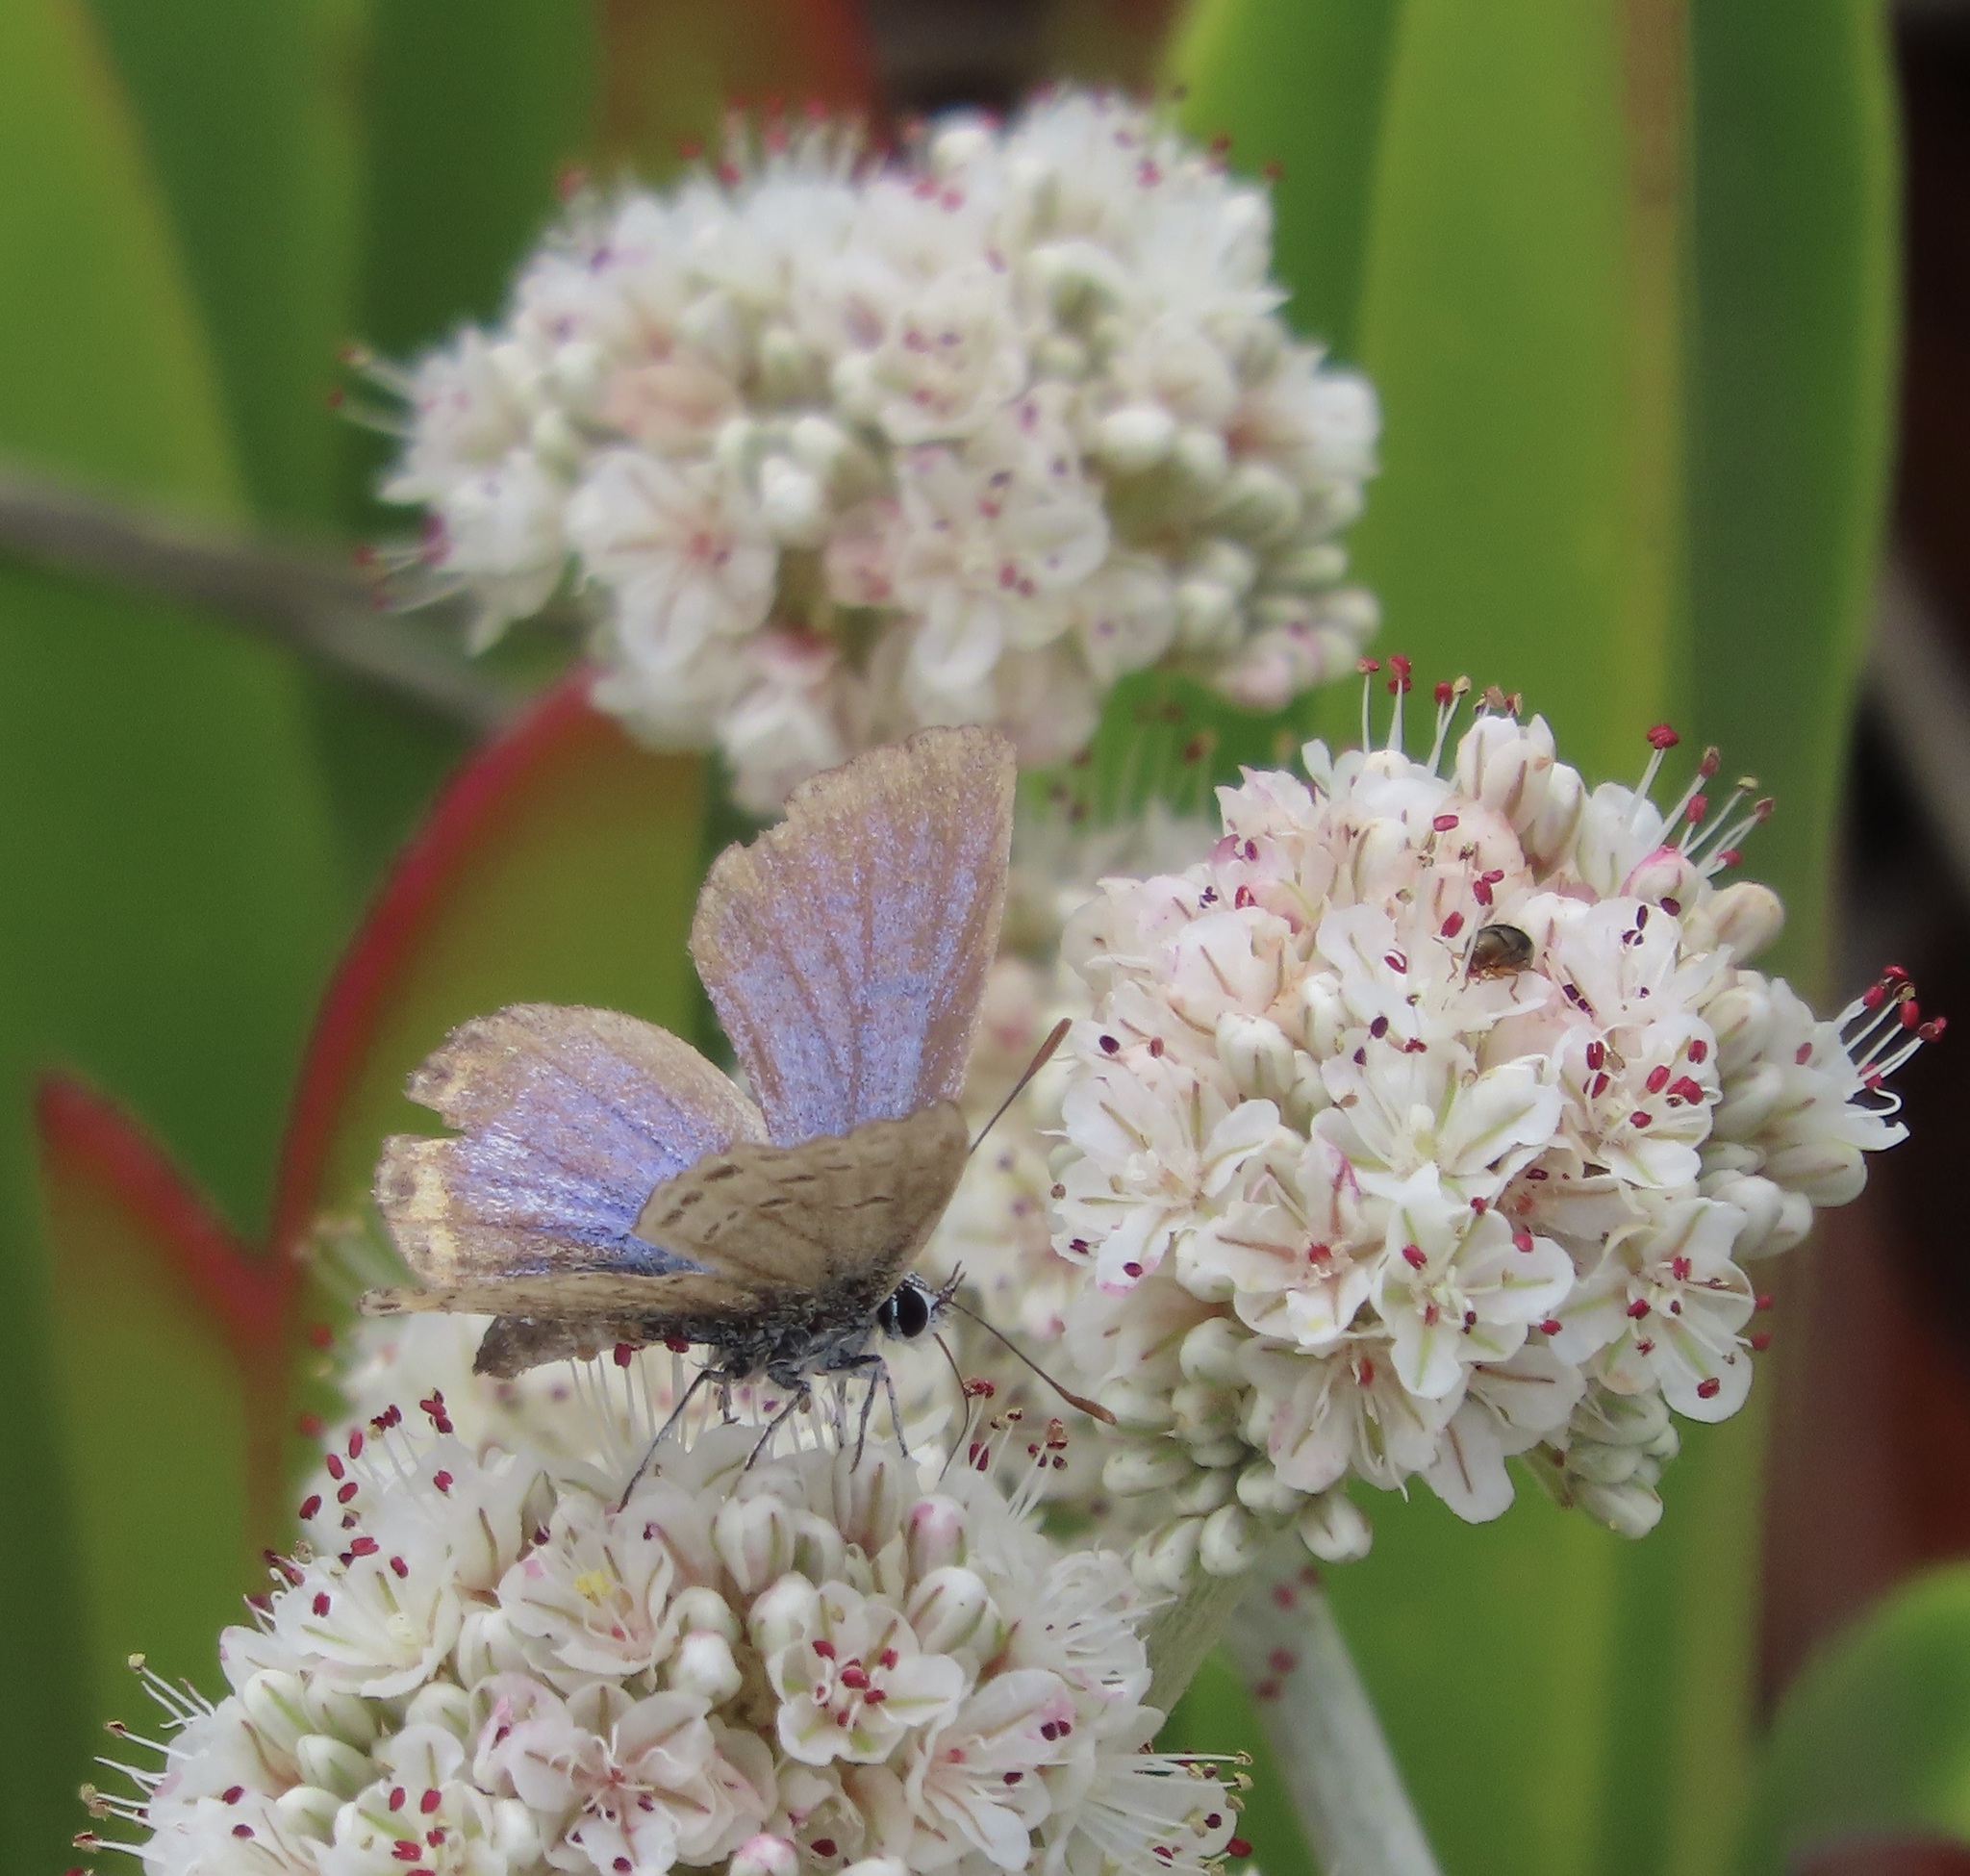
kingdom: Animalia
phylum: Arthropoda
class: Insecta
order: Lepidoptera
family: Lycaenidae
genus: Icaricia
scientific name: Icaricia acmon
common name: Acmon blue
